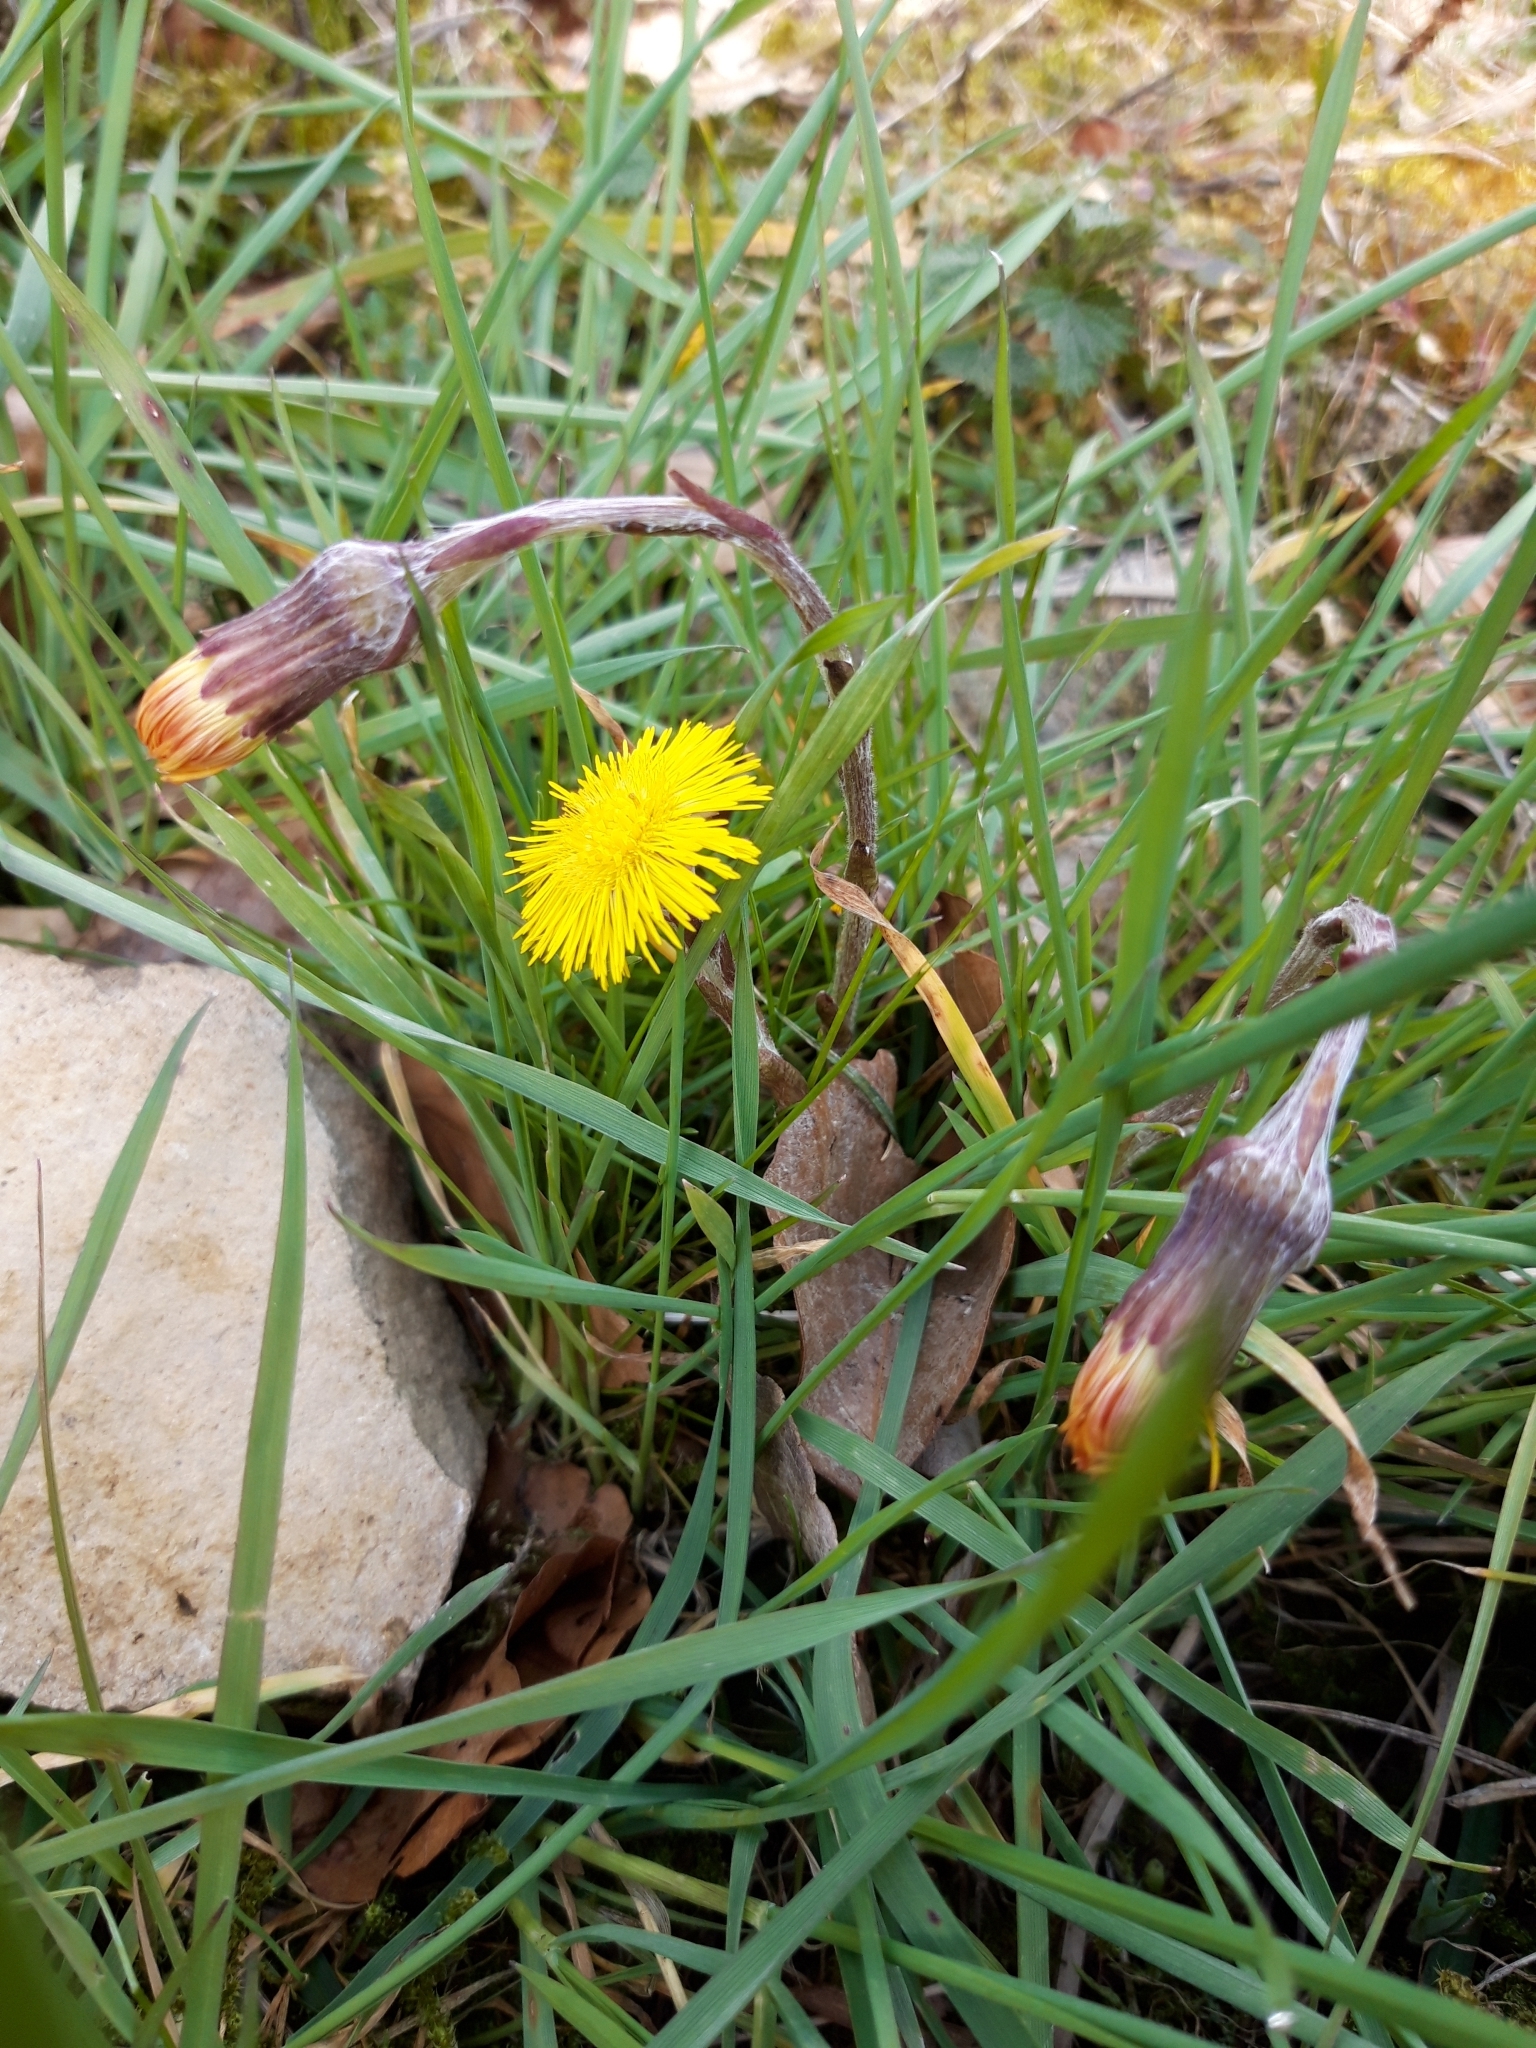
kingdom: Plantae
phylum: Tracheophyta
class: Magnoliopsida
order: Asterales
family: Asteraceae
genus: Tussilago
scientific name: Tussilago farfara
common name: Coltsfoot
